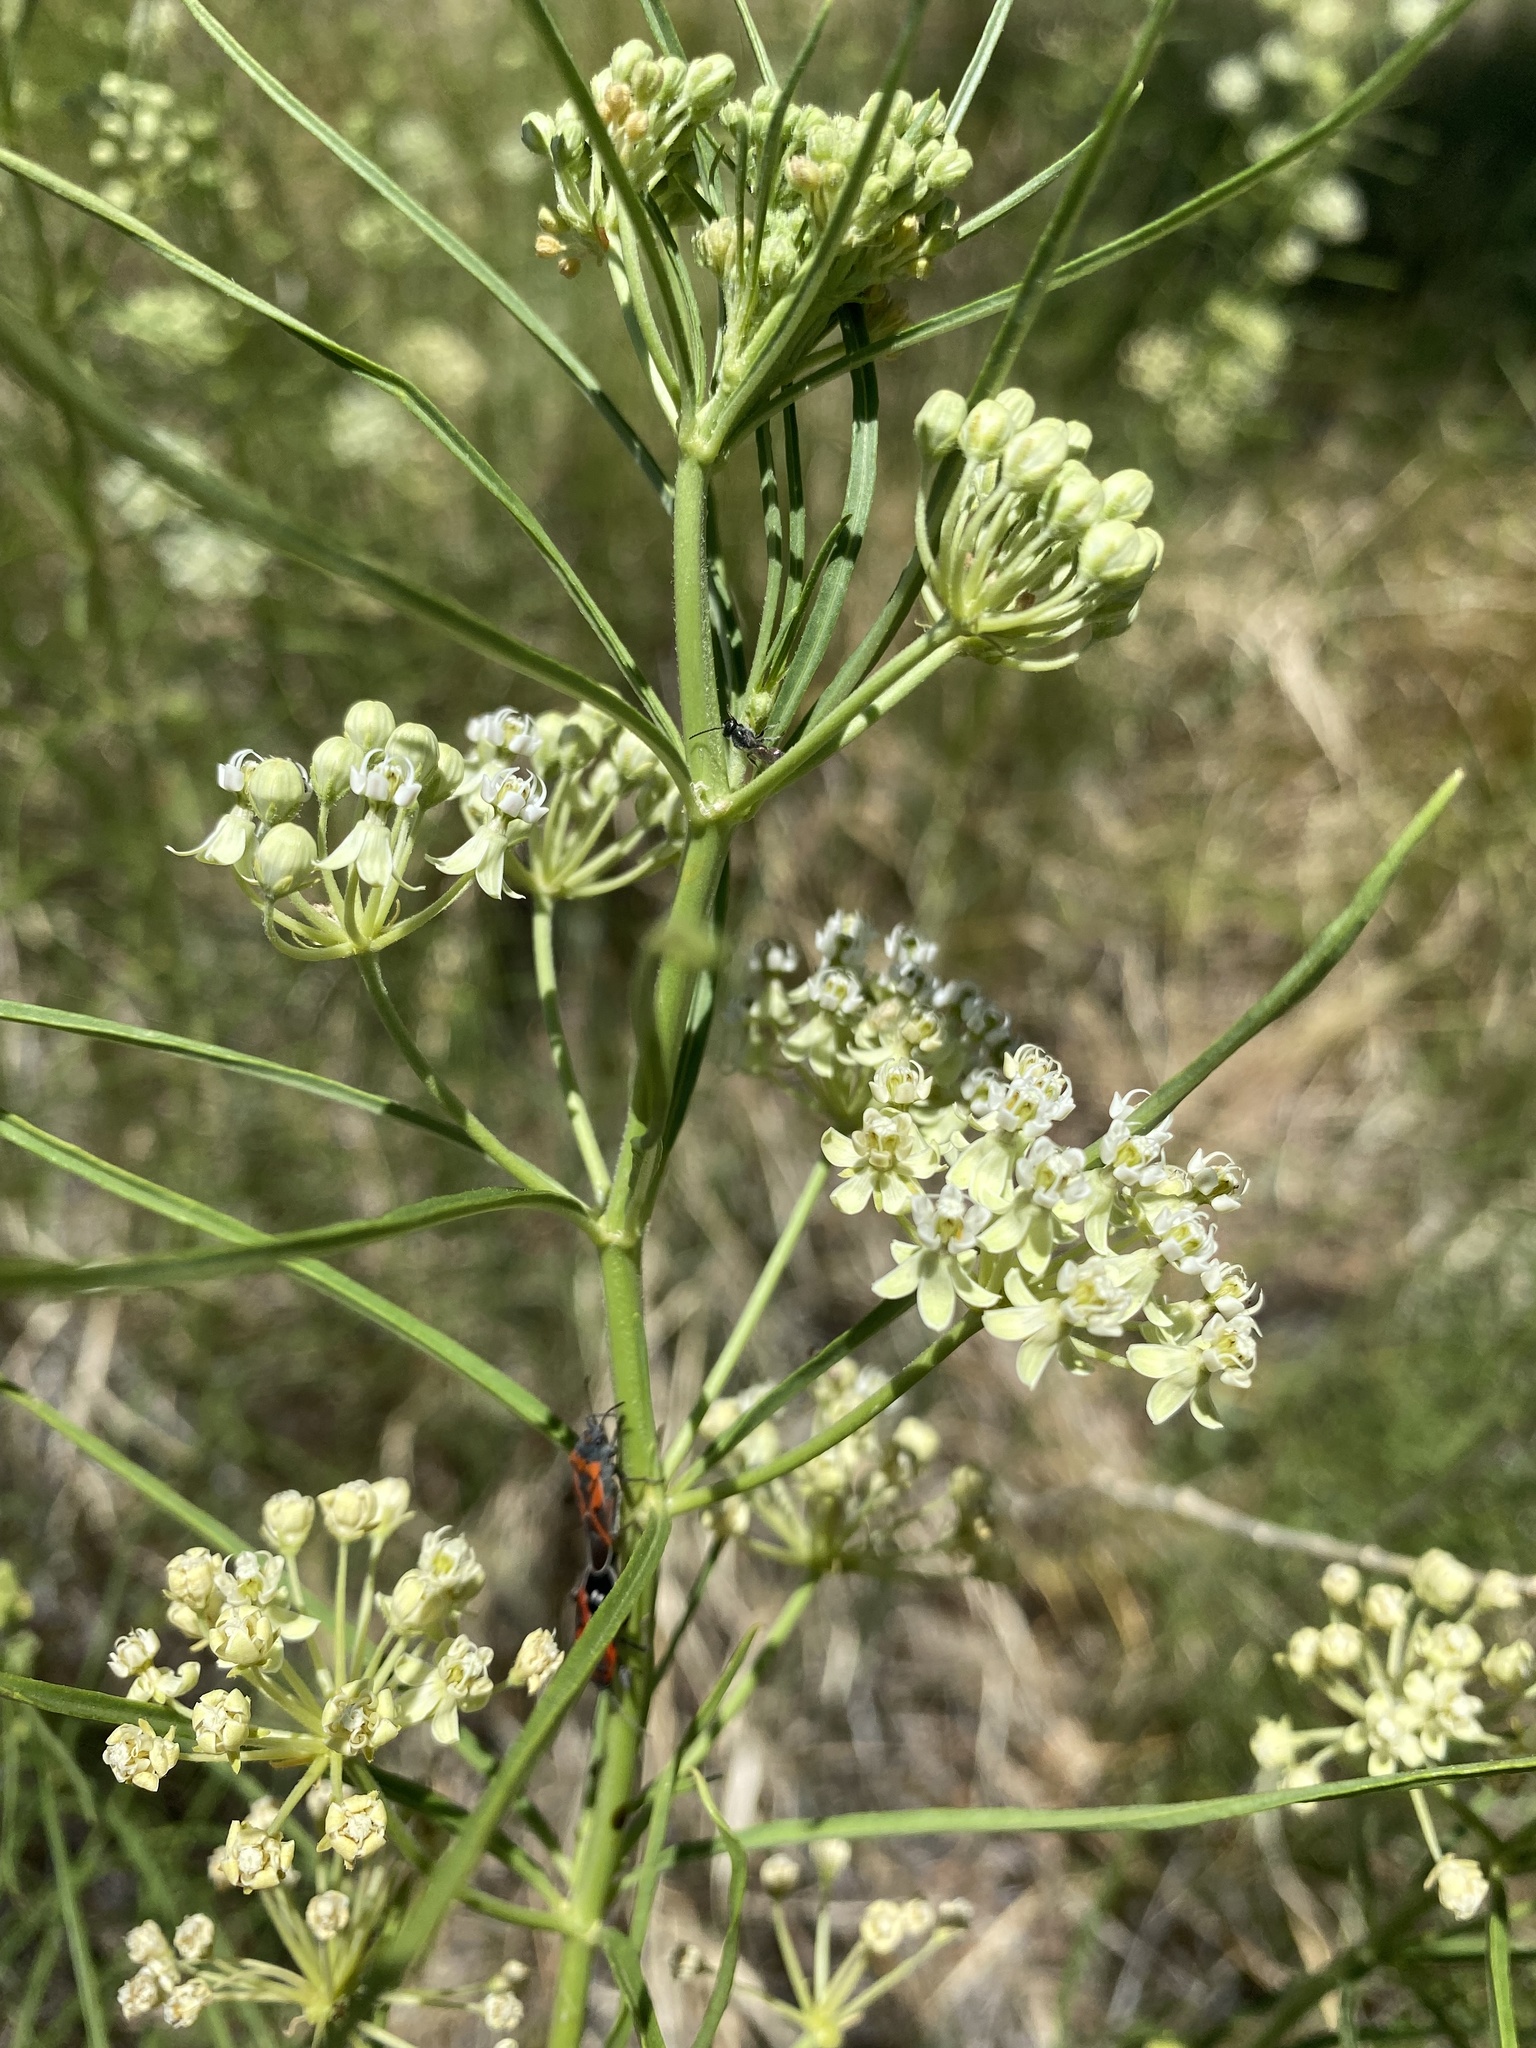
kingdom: Plantae
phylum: Tracheophyta
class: Magnoliopsida
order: Gentianales
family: Apocynaceae
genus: Asclepias
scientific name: Asclepias subverticillata
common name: Horsetail milkweed
